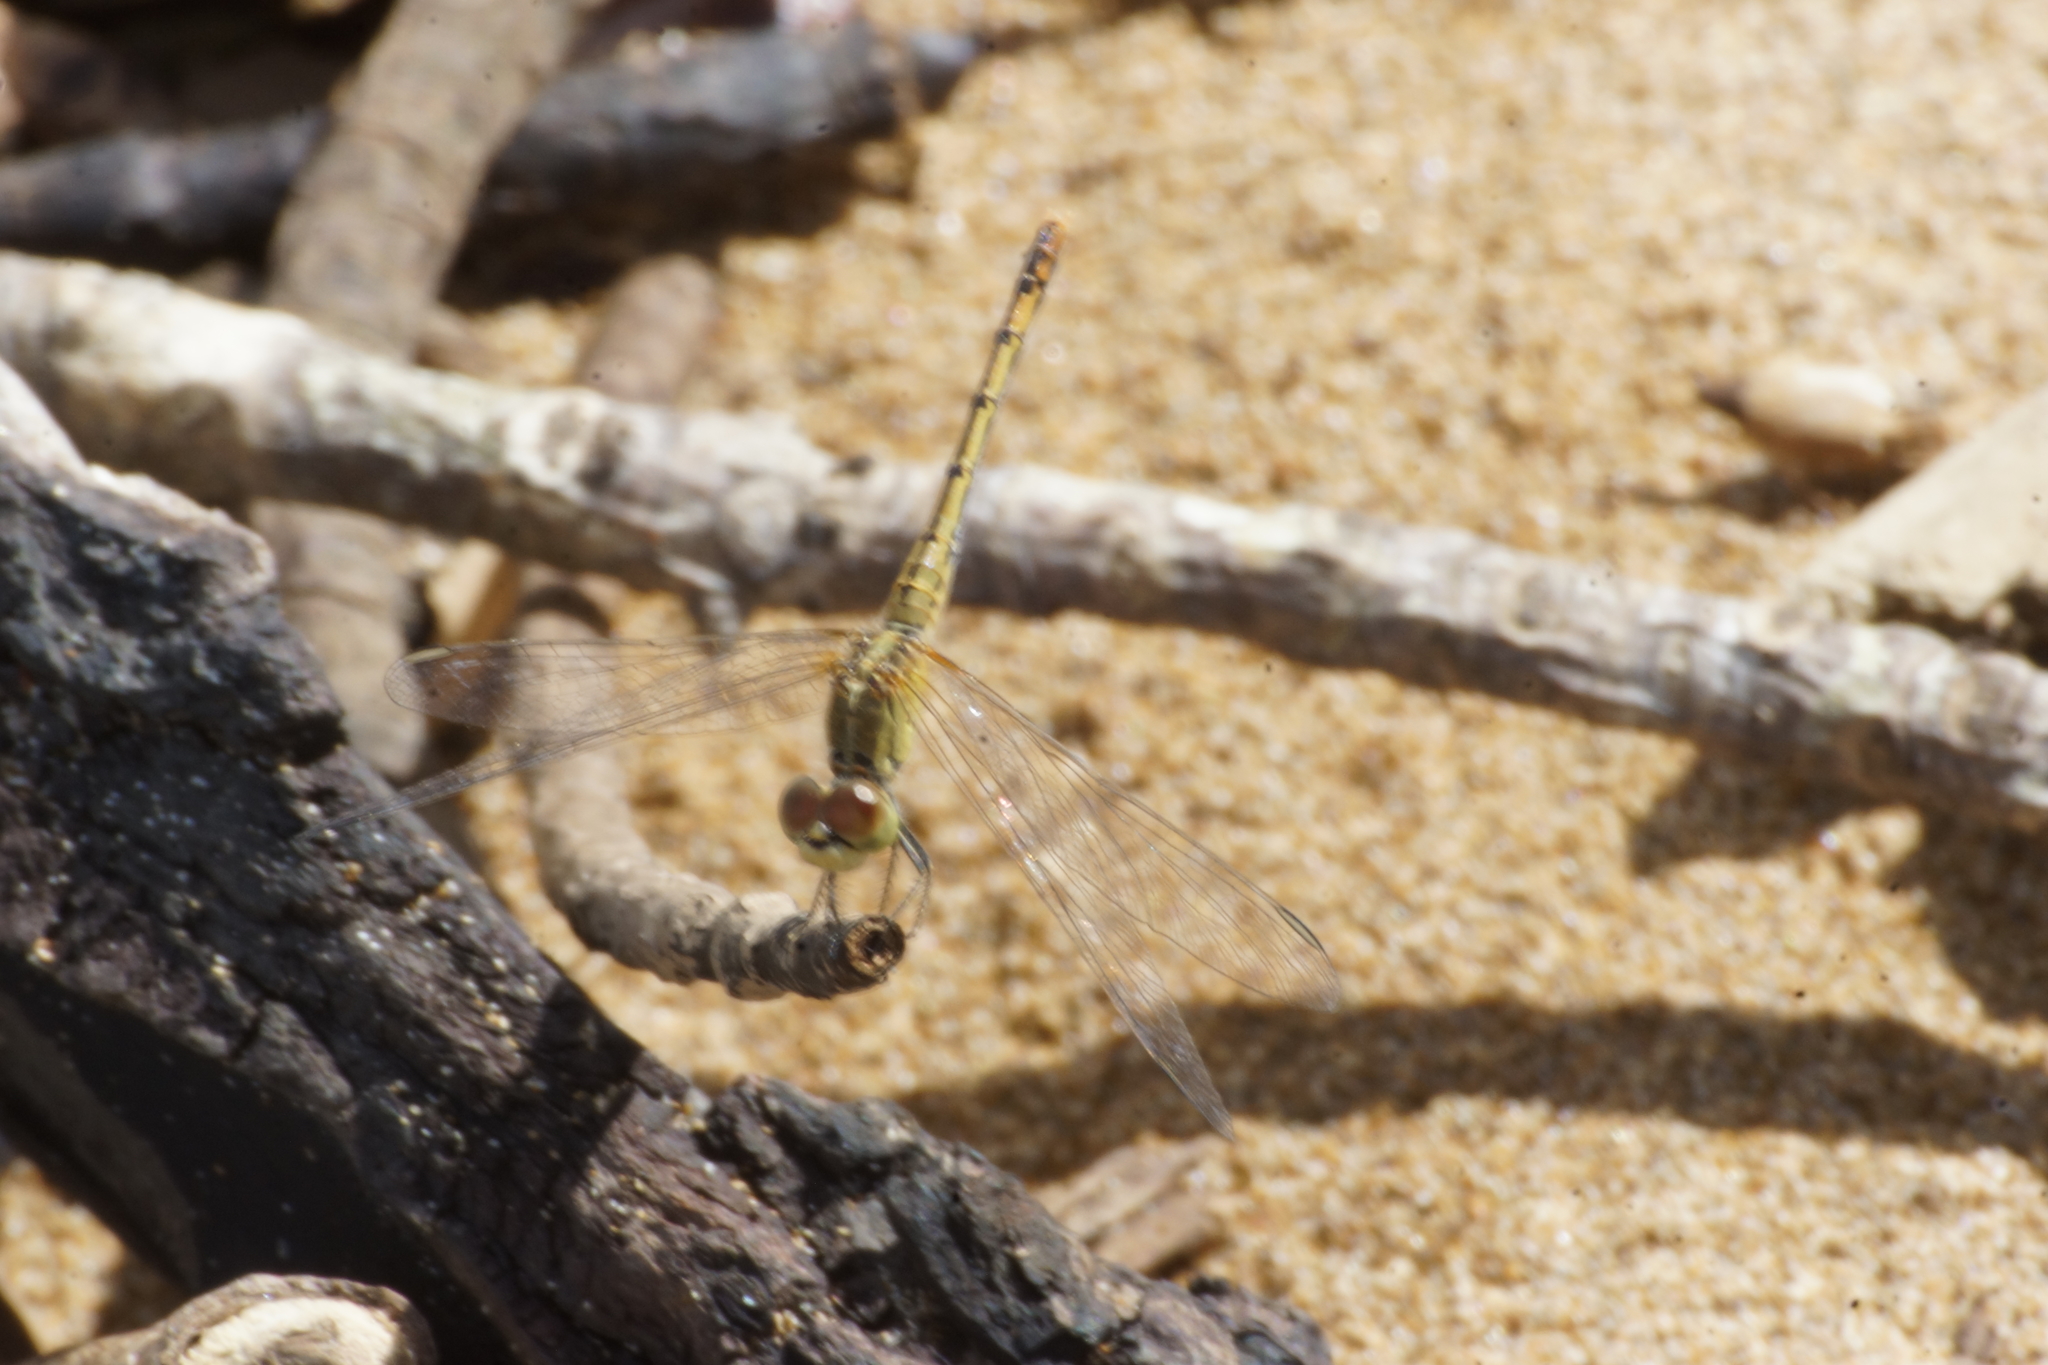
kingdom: Animalia
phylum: Arthropoda
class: Insecta
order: Odonata
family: Libellulidae
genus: Diplacodes
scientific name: Diplacodes bipunctata
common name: Red percher dragonfly
